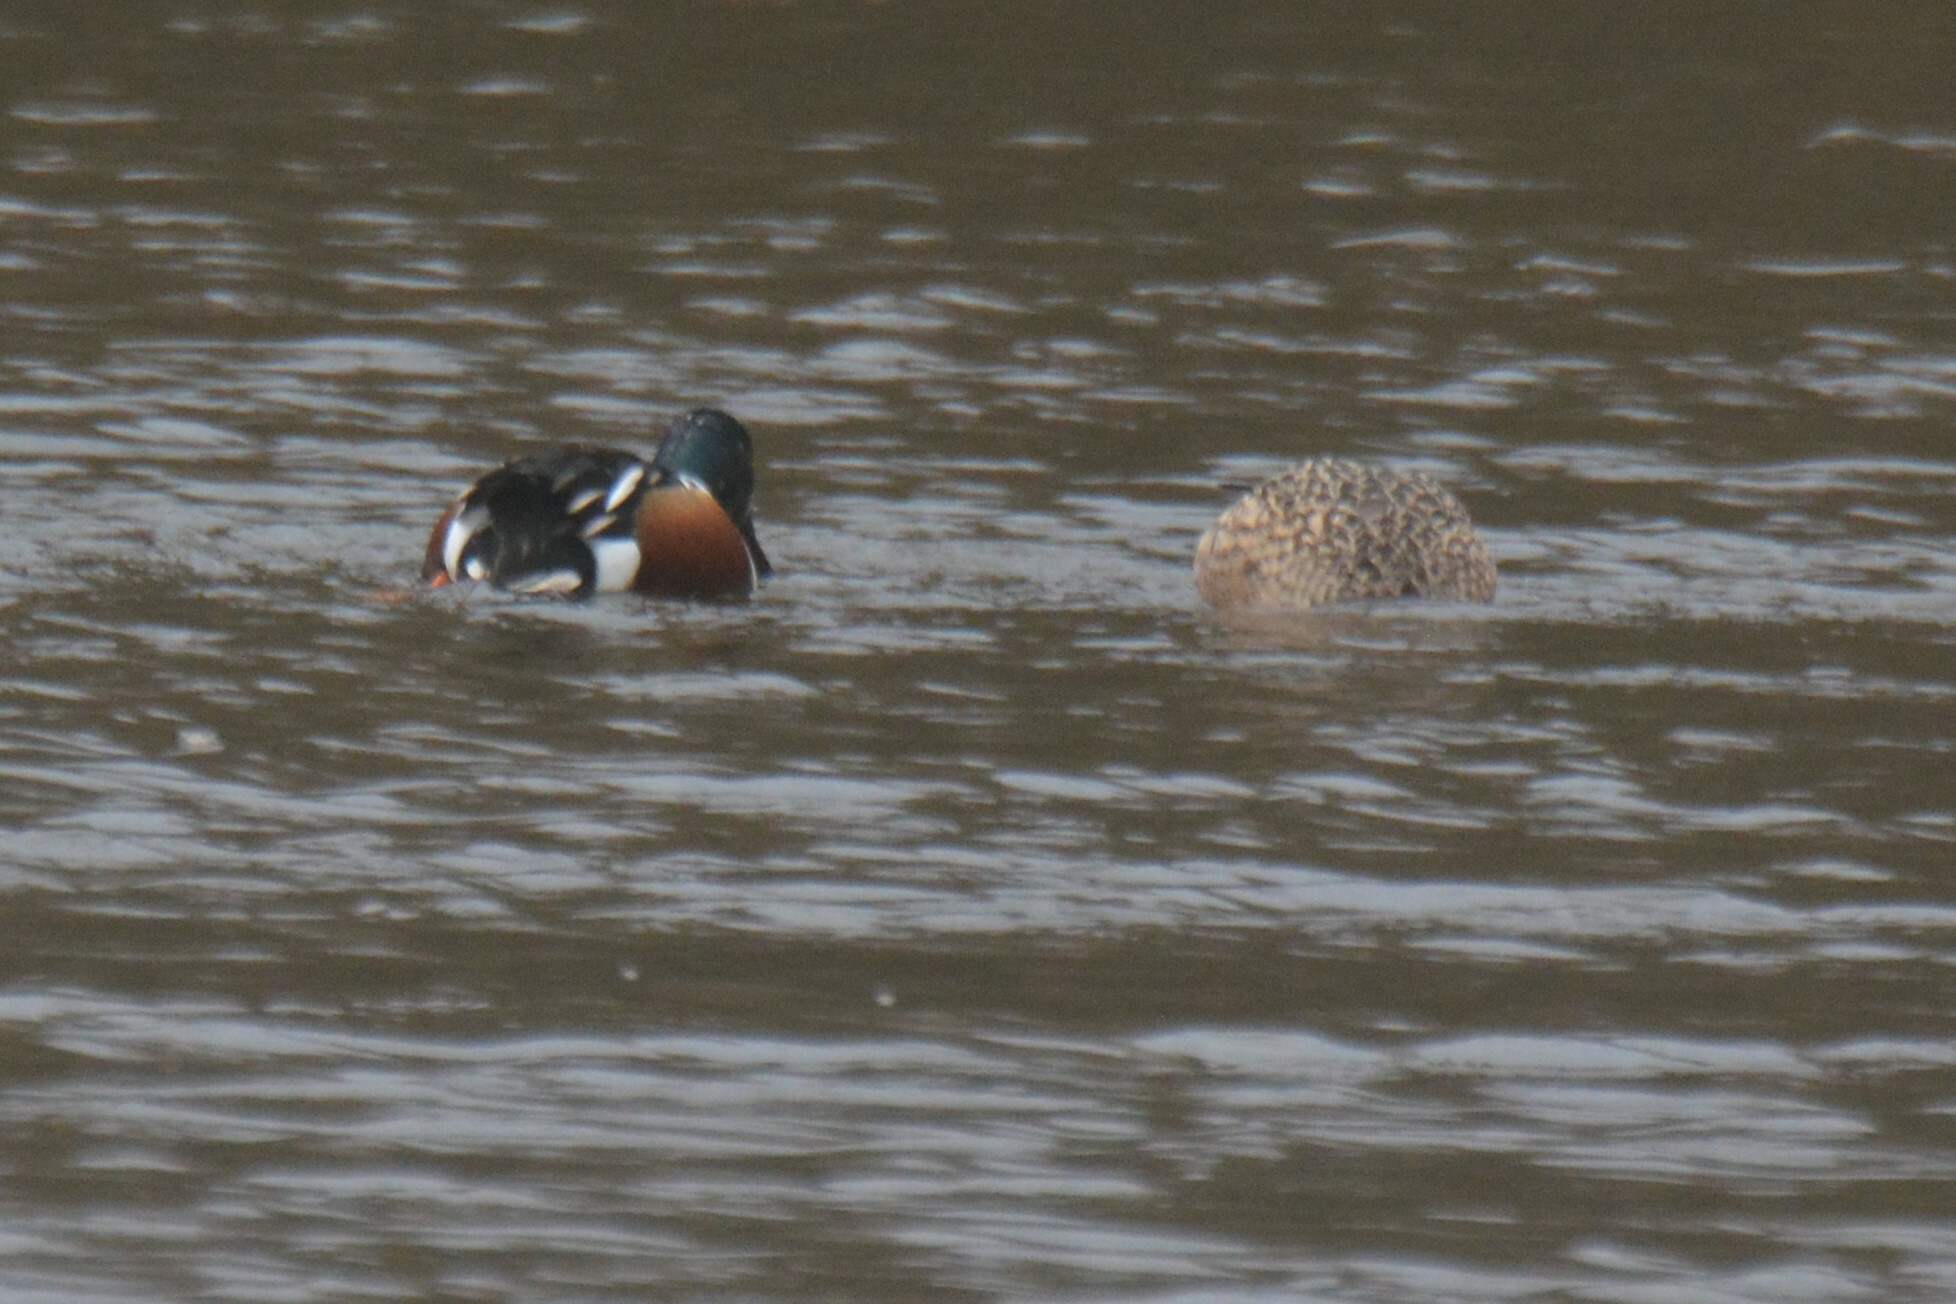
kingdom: Animalia
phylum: Chordata
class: Aves
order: Anseriformes
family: Anatidae
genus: Spatula
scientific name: Spatula clypeata
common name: Northern shoveler
